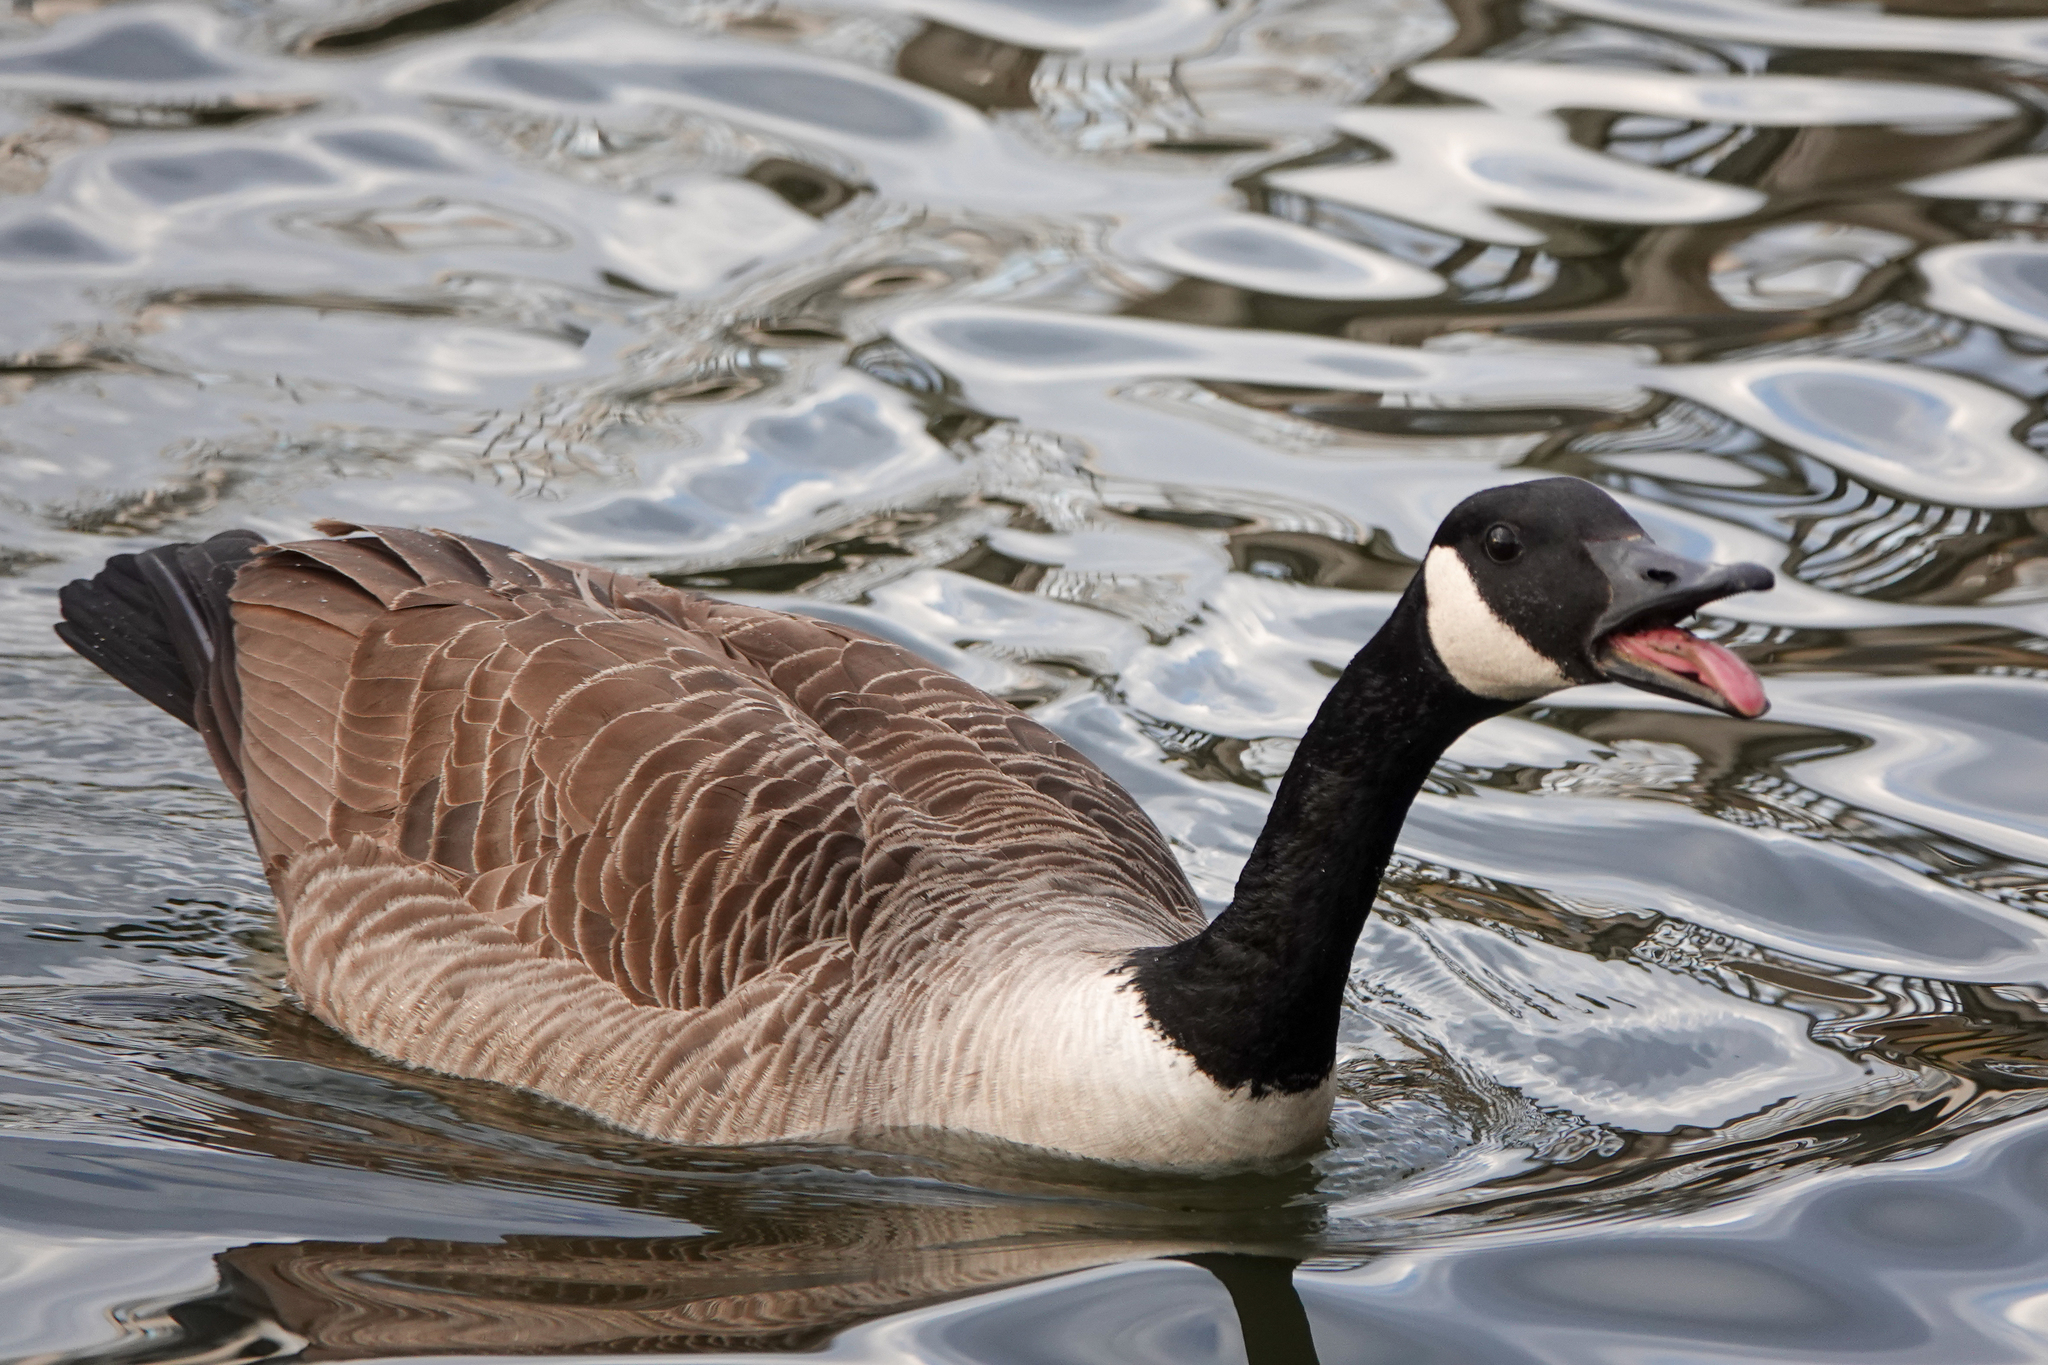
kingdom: Animalia
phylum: Chordata
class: Aves
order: Anseriformes
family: Anatidae
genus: Branta
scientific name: Branta canadensis
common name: Canada goose
